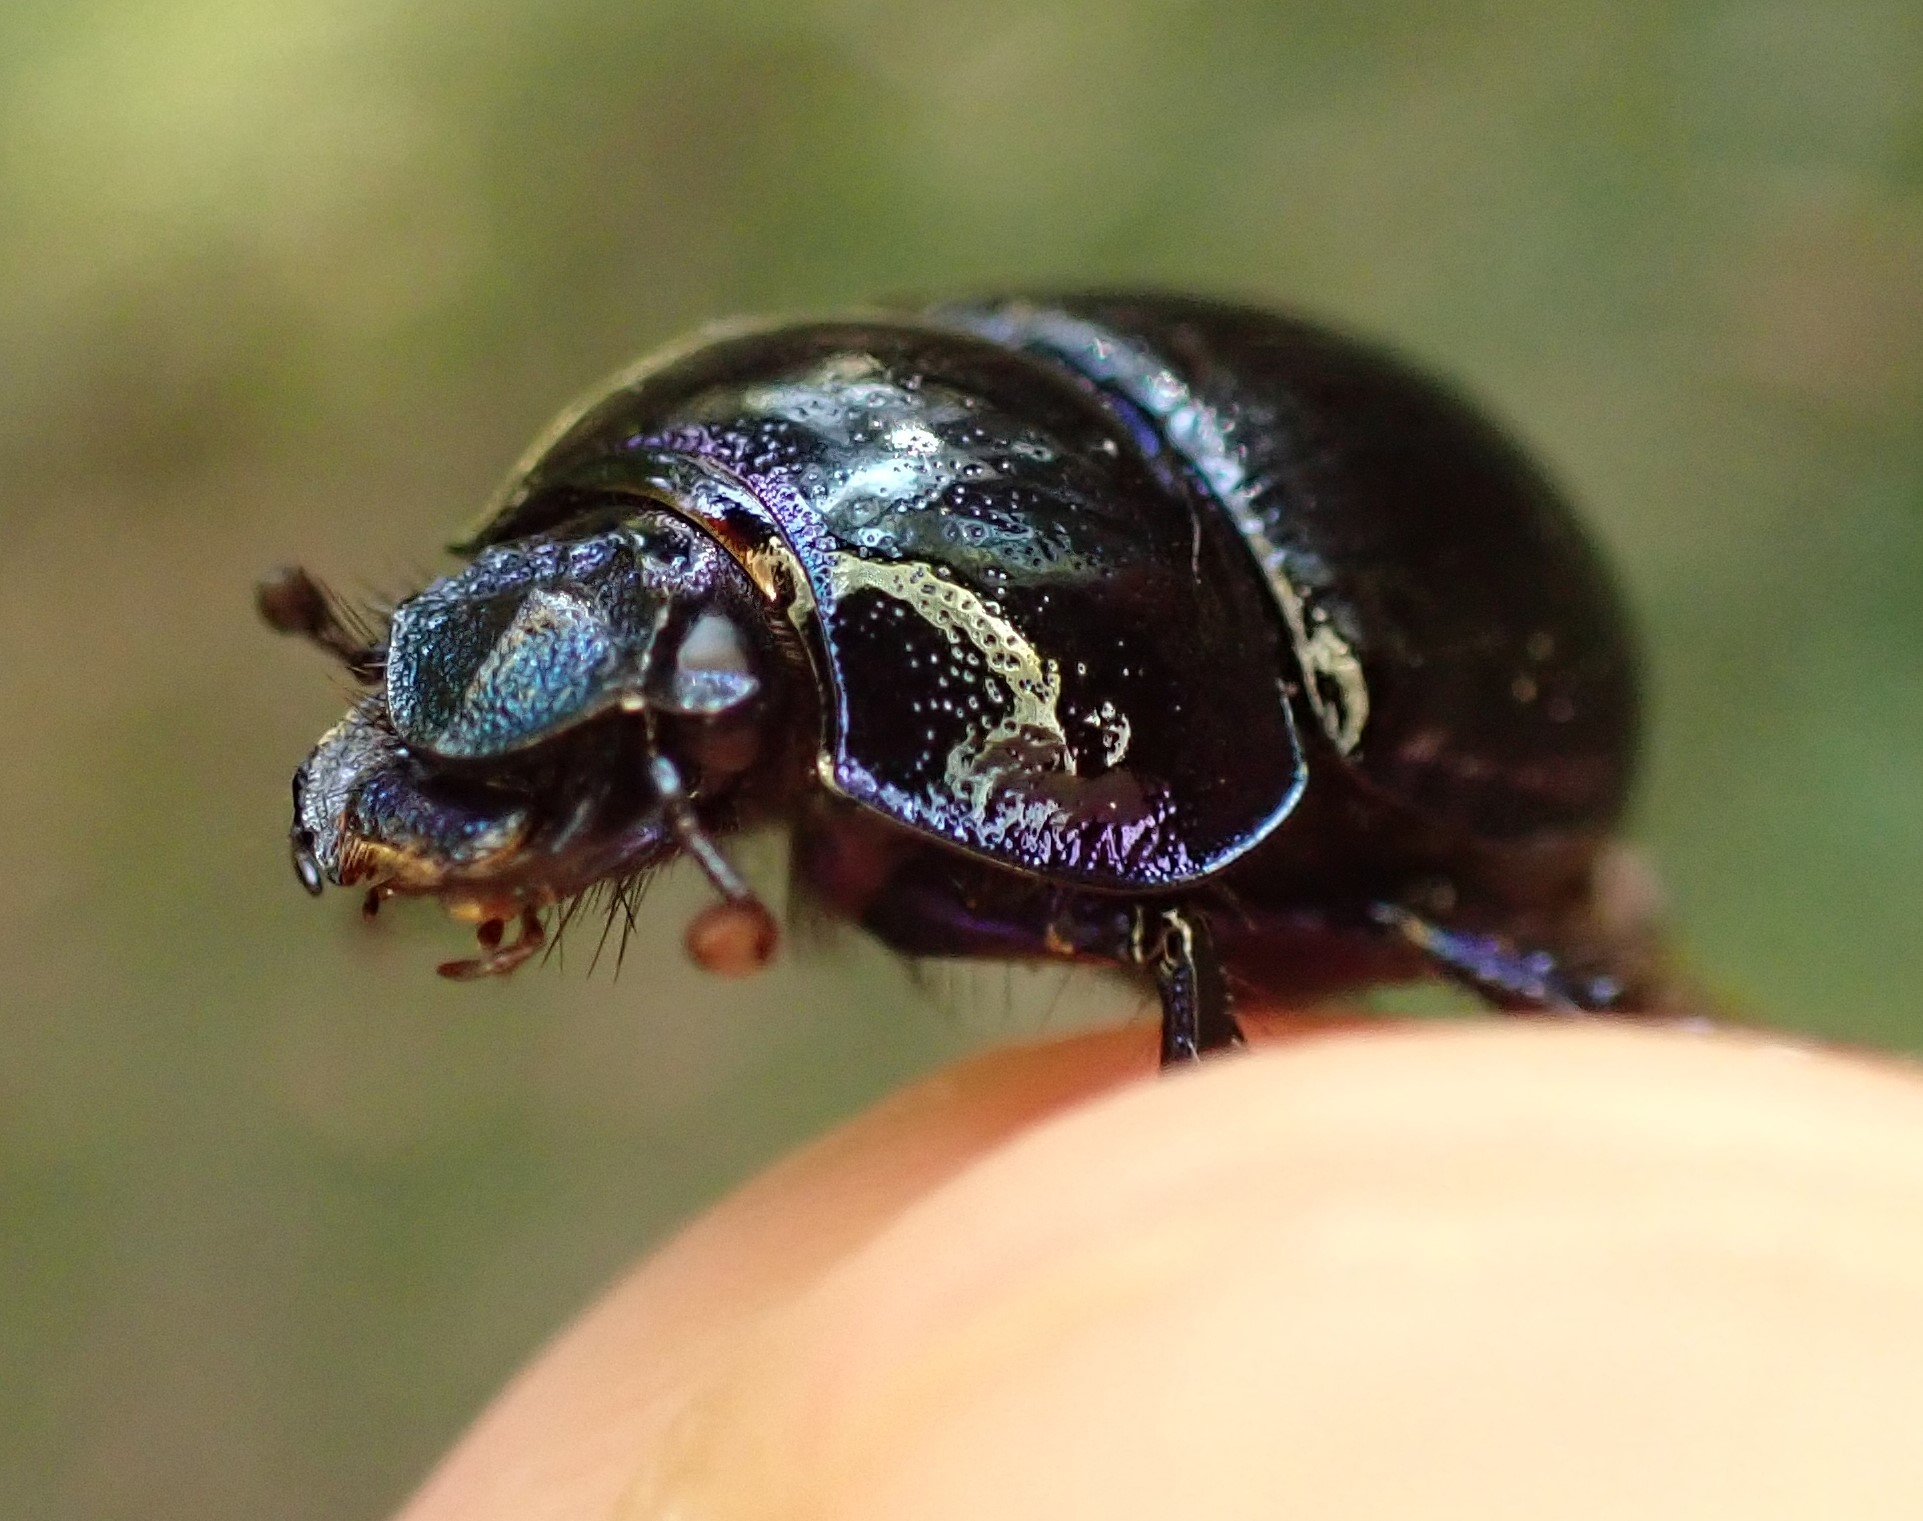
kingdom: Animalia
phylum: Arthropoda
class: Insecta
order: Coleoptera
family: Geotrupidae
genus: Anoplotrupes
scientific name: Anoplotrupes stercorosus
